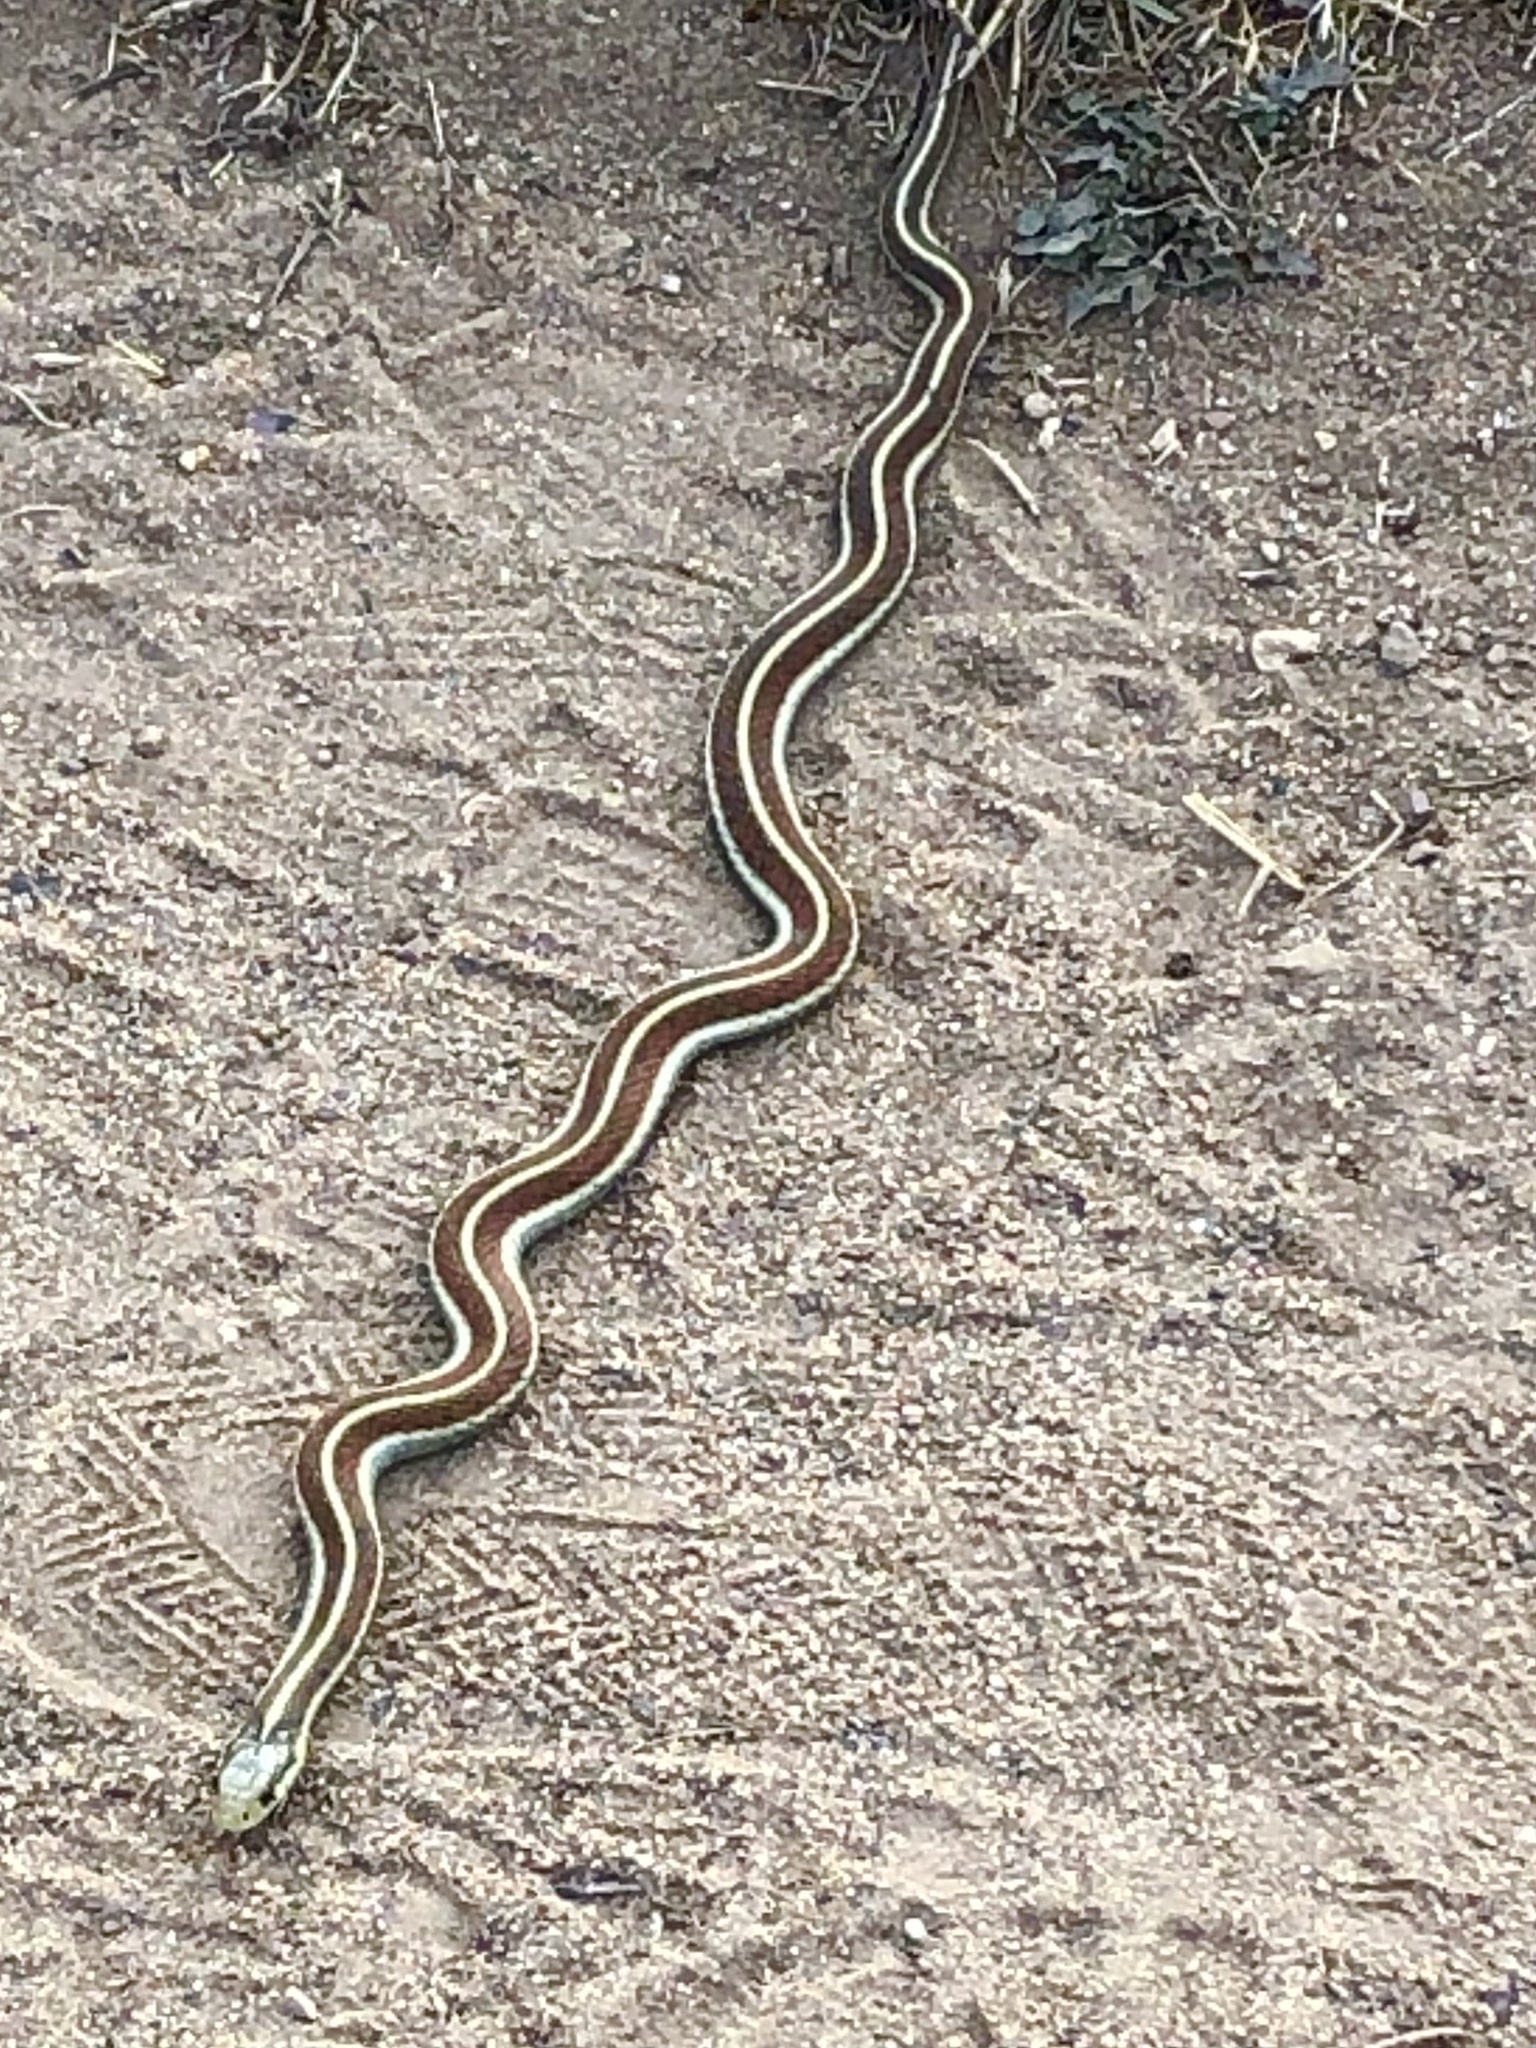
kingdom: Animalia
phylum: Chordata
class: Squamata
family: Colubridae
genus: Thamnophis
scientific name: Thamnophis elegans
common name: Western terrestrial garter snake
